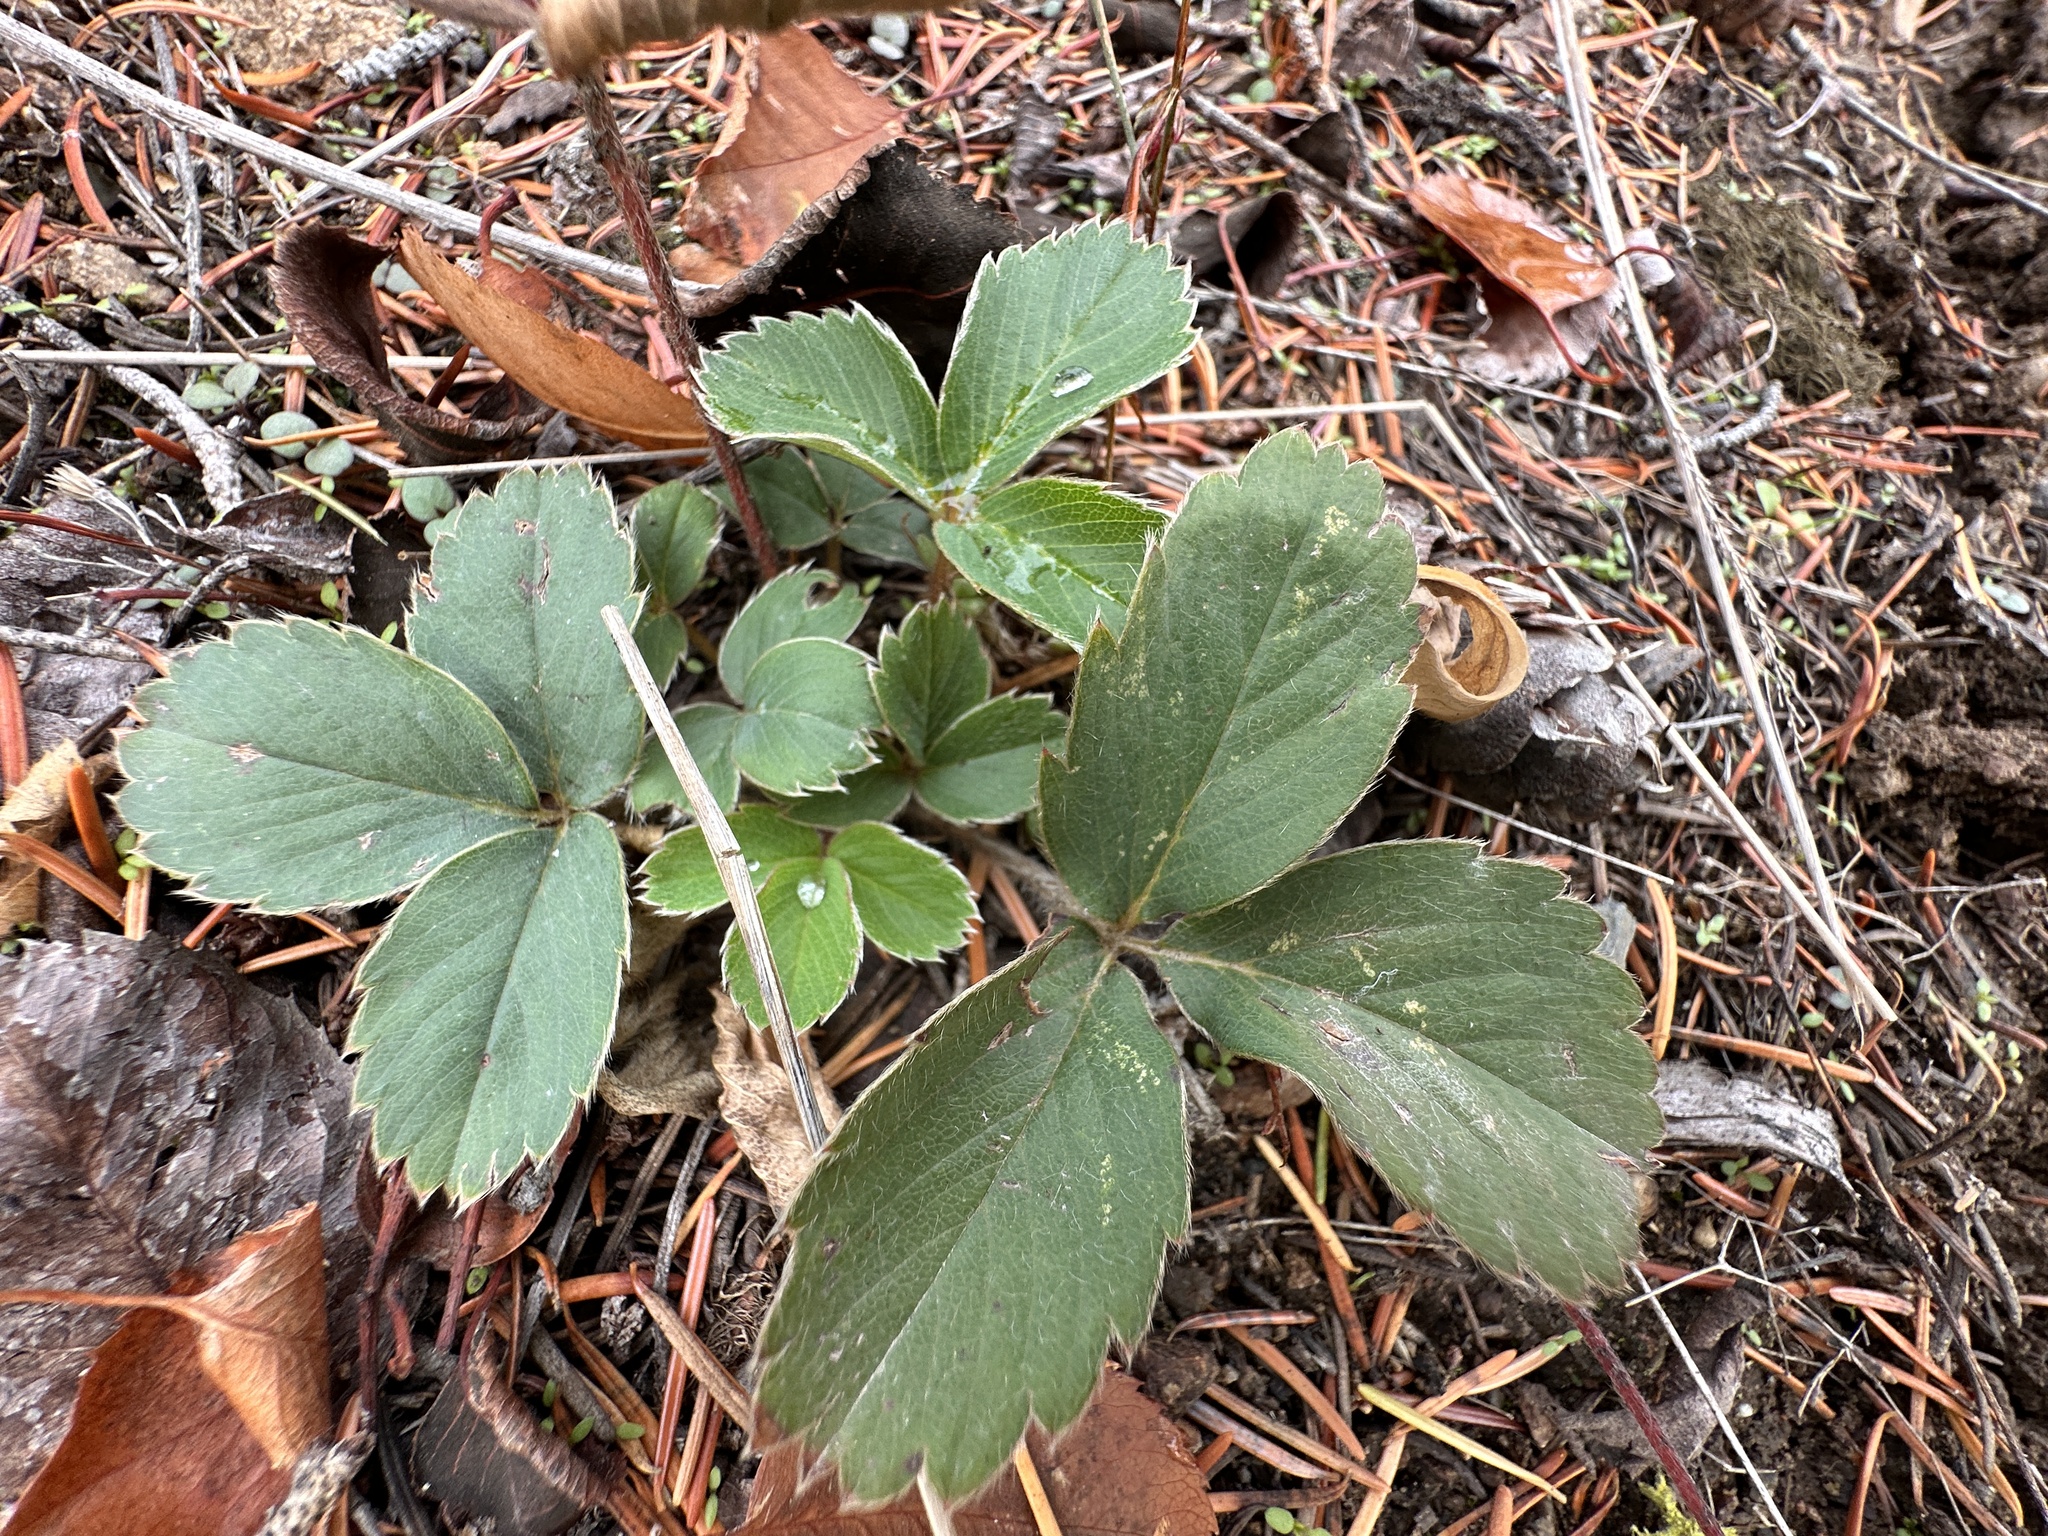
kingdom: Plantae
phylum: Tracheophyta
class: Magnoliopsida
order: Rosales
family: Rosaceae
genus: Fragaria
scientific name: Fragaria virginiana
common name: Thickleaved wild strawberry
